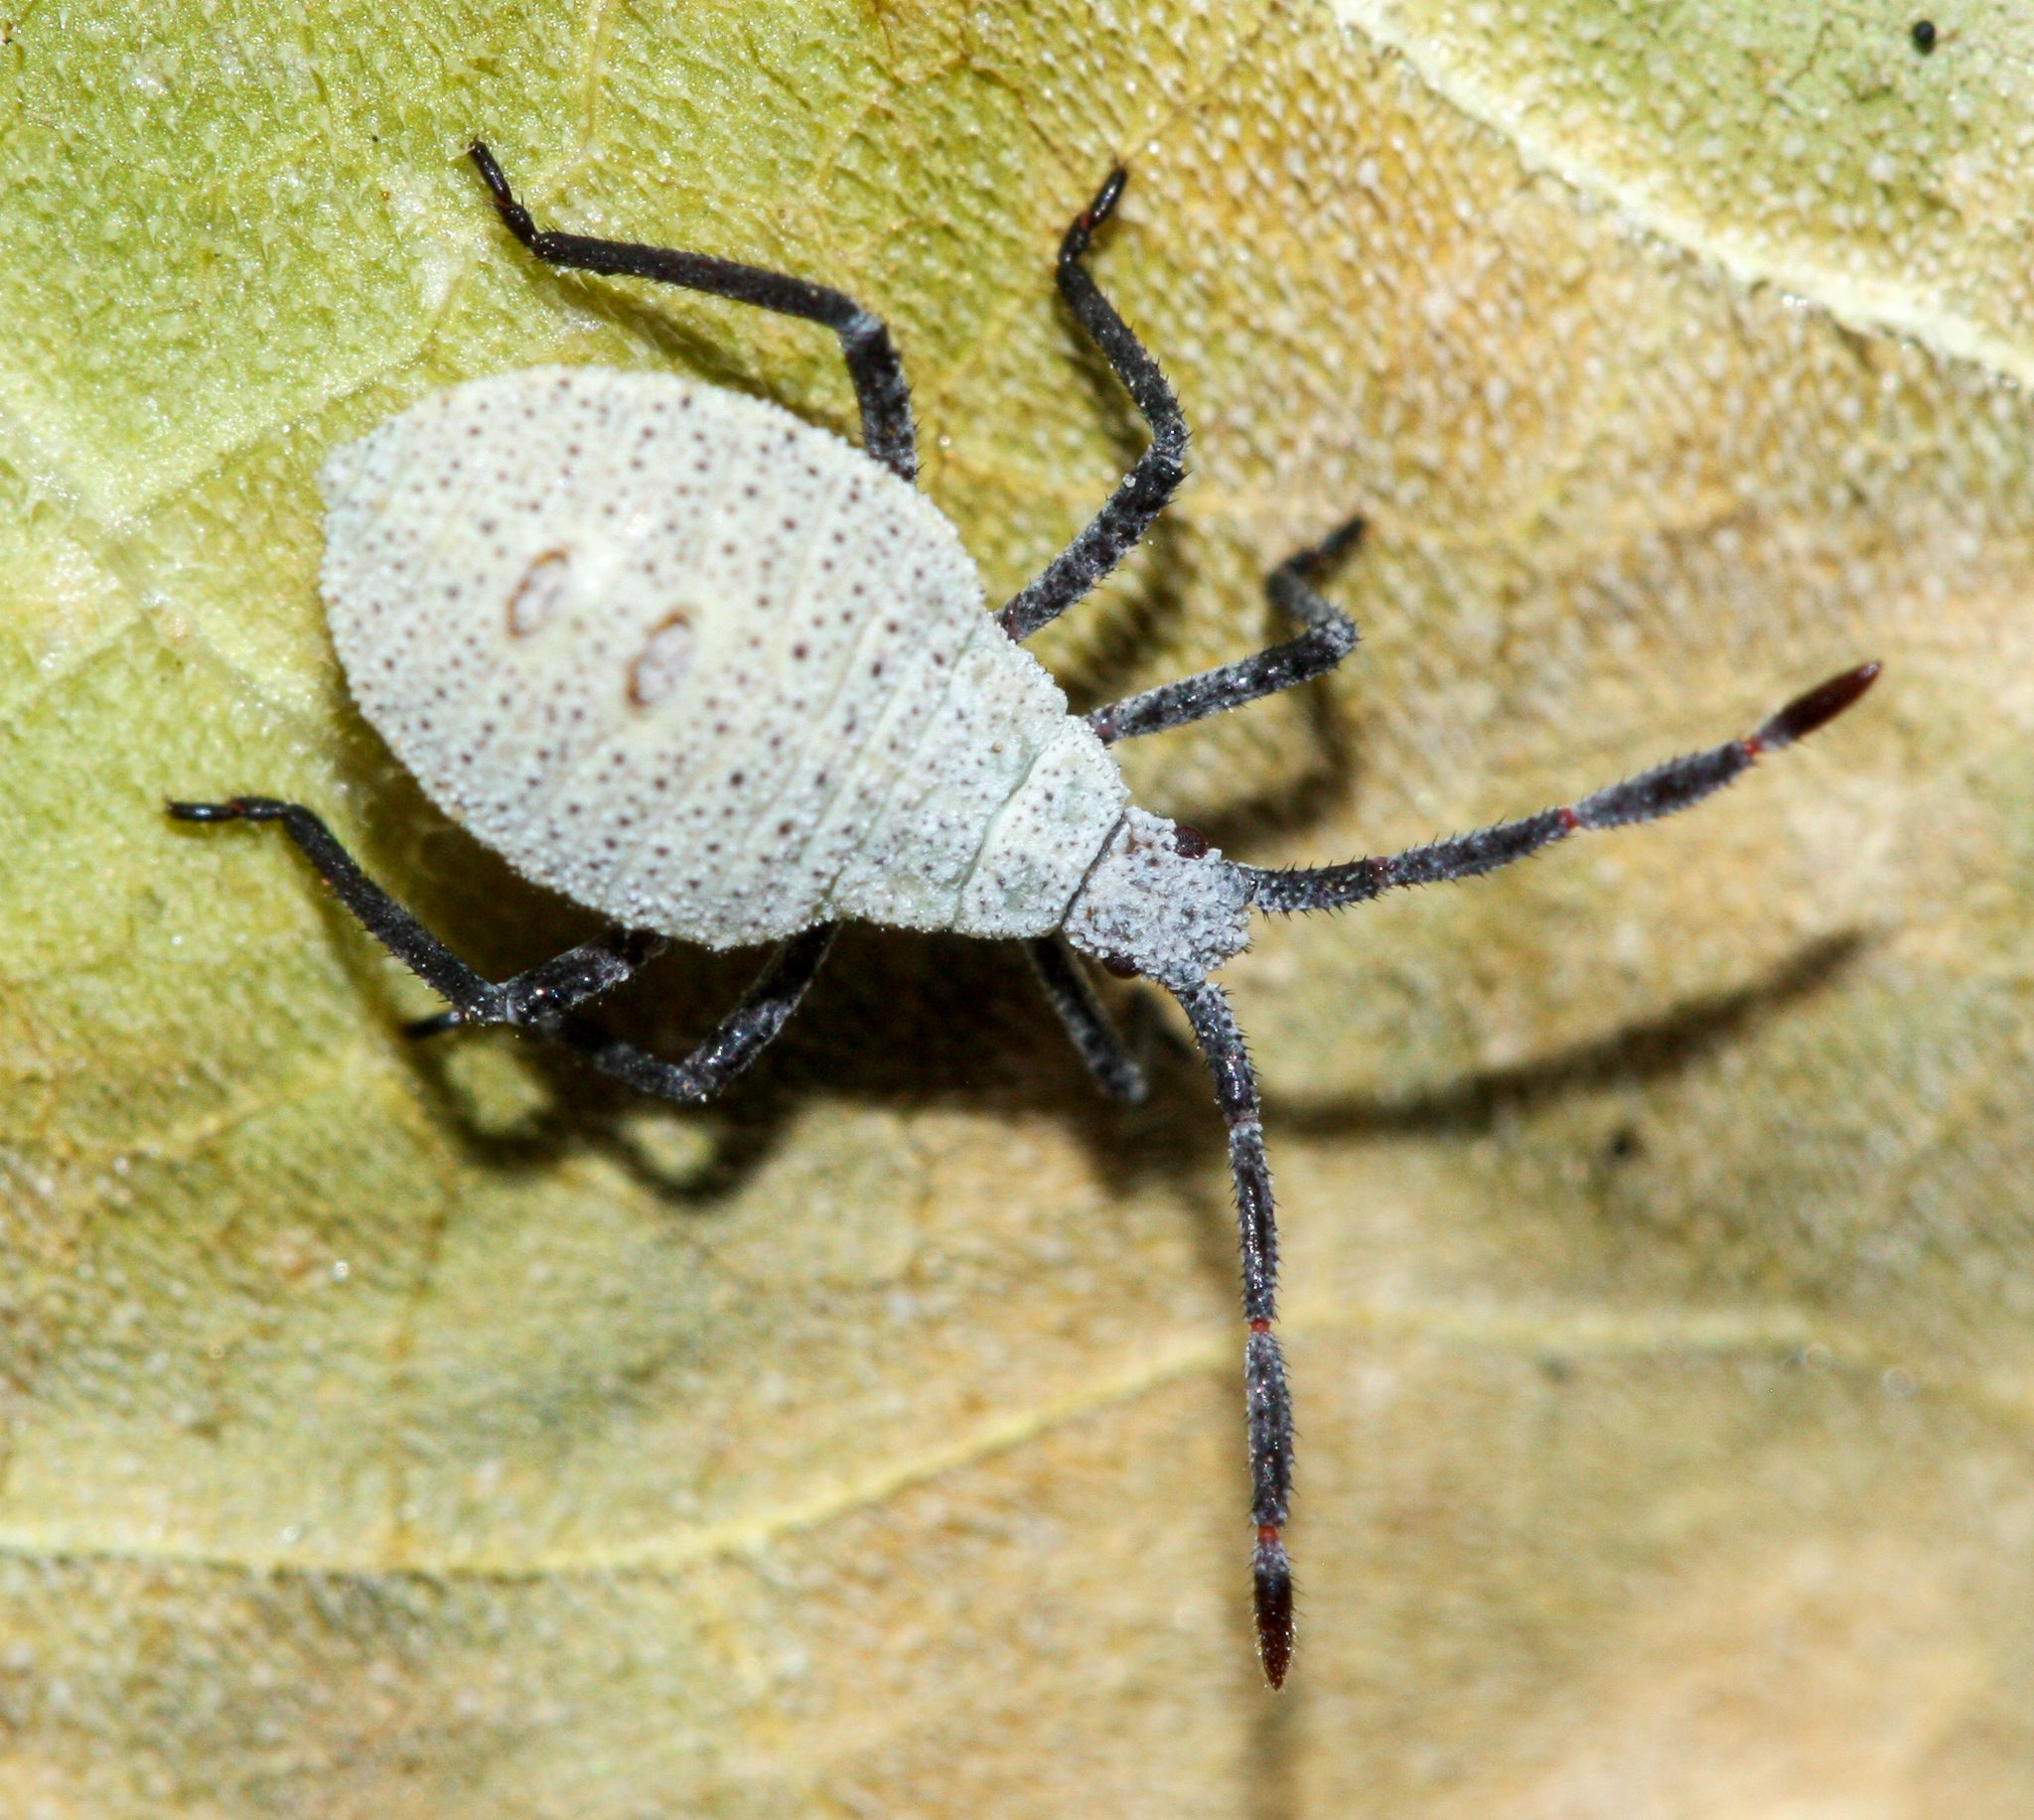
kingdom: Animalia
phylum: Arthropoda
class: Insecta
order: Hemiptera
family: Coreidae
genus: Anasa
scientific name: Anasa tristis
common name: Squash bug
